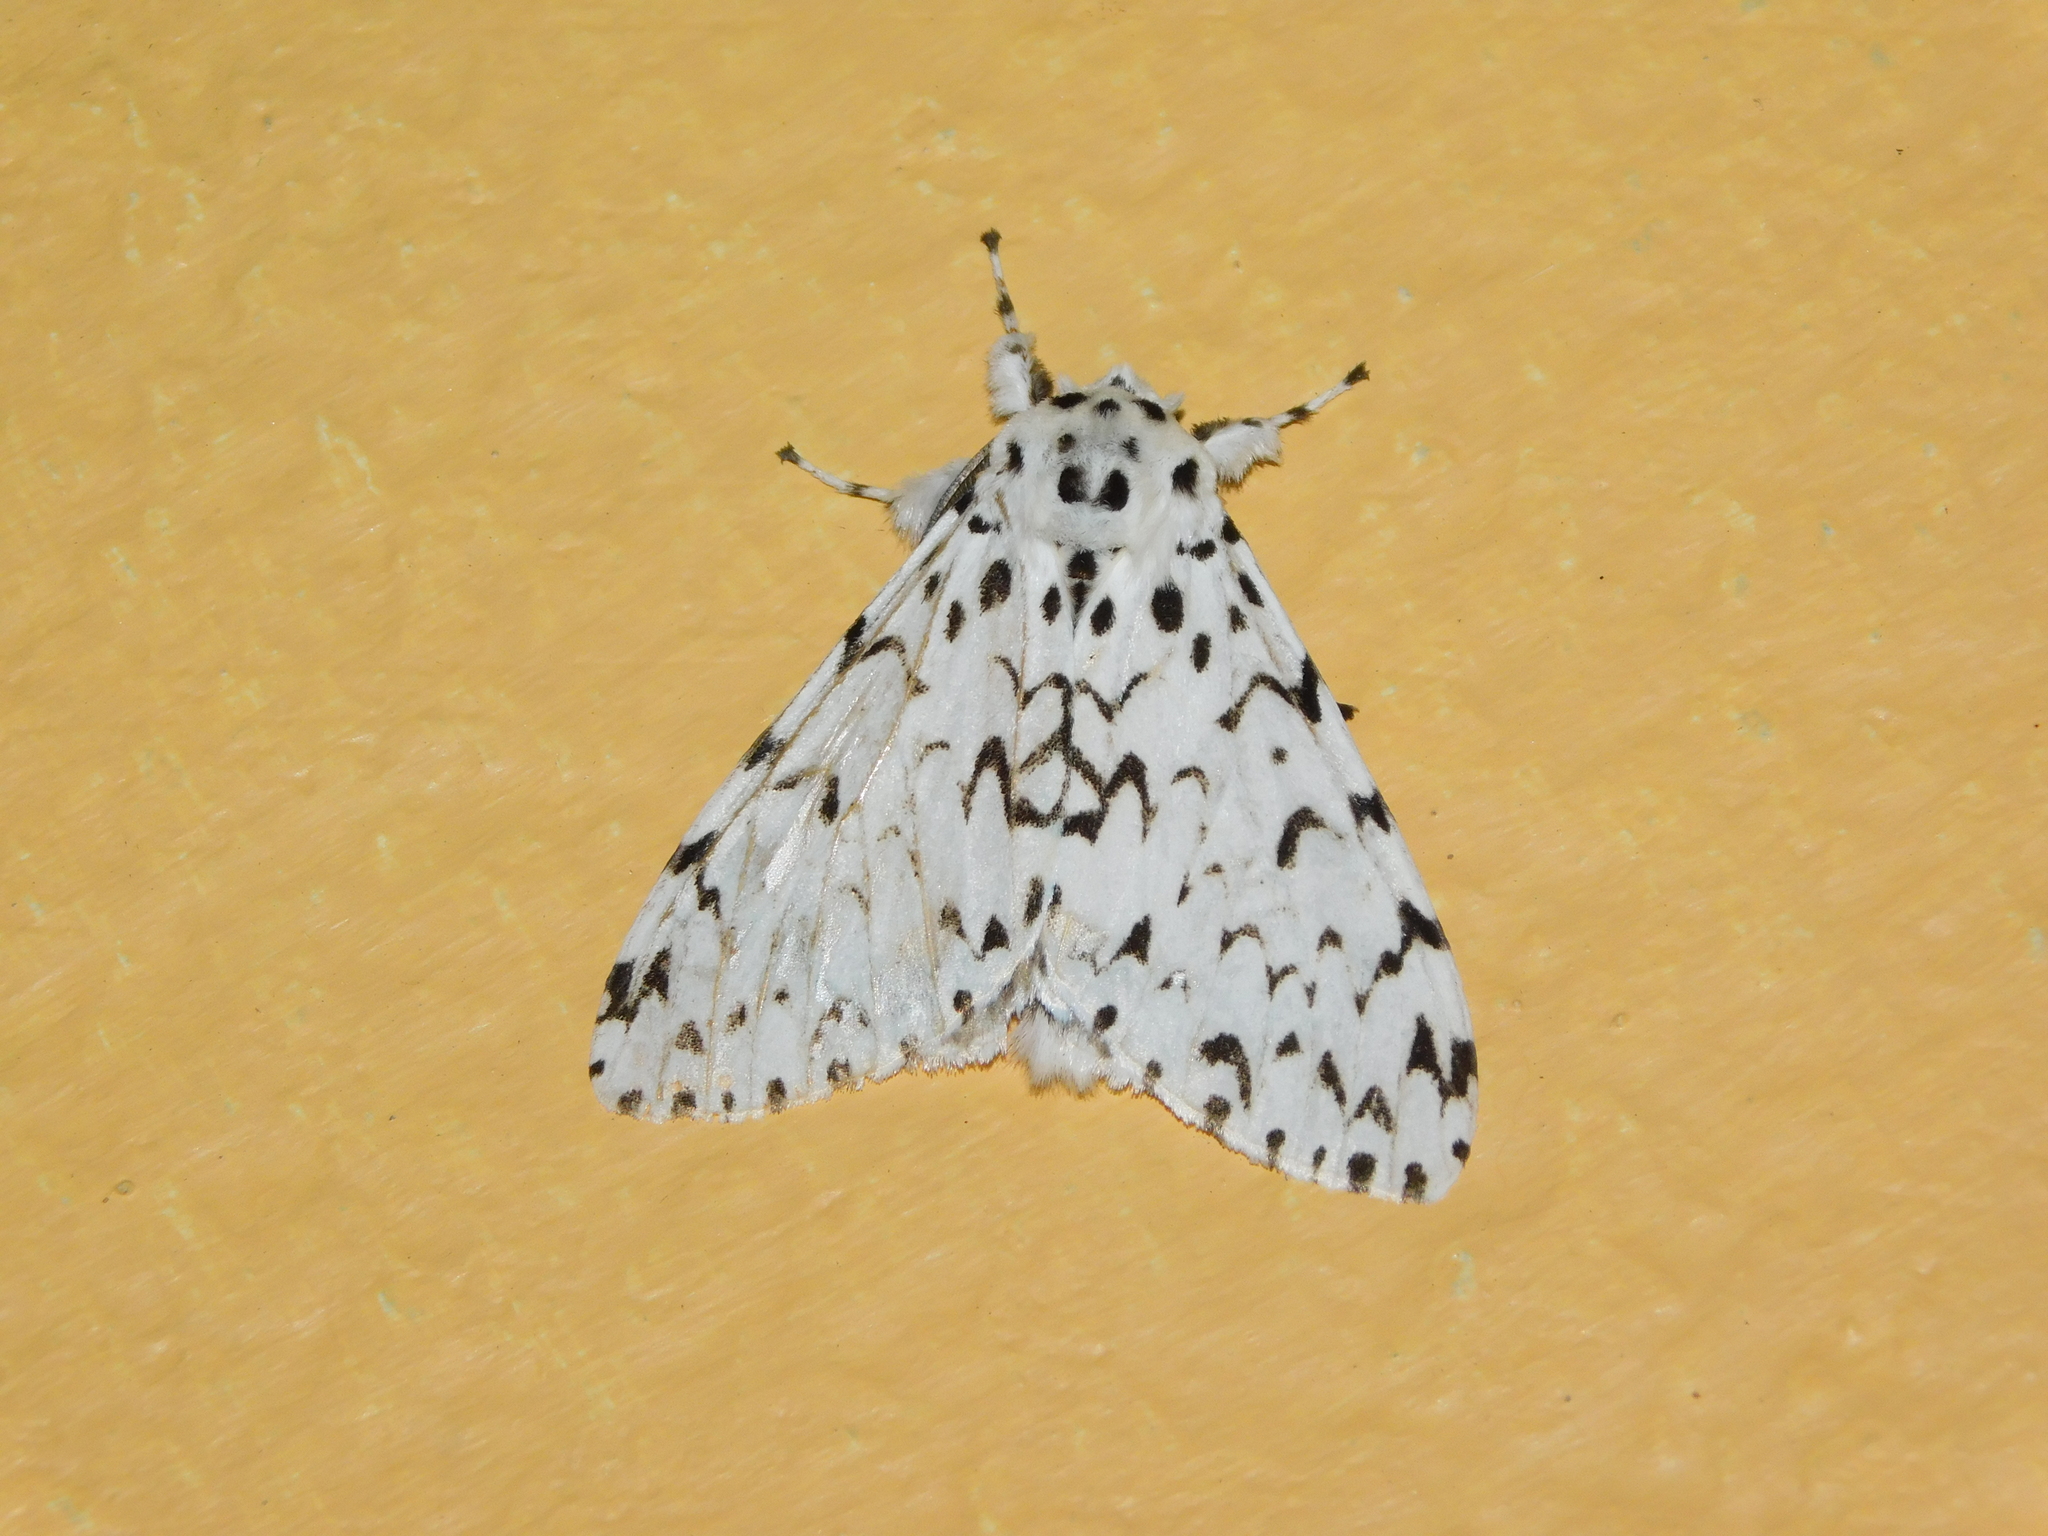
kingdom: Animalia
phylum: Arthropoda
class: Insecta
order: Lepidoptera
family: Erebidae
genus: Lymantria
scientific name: Lymantria todara
